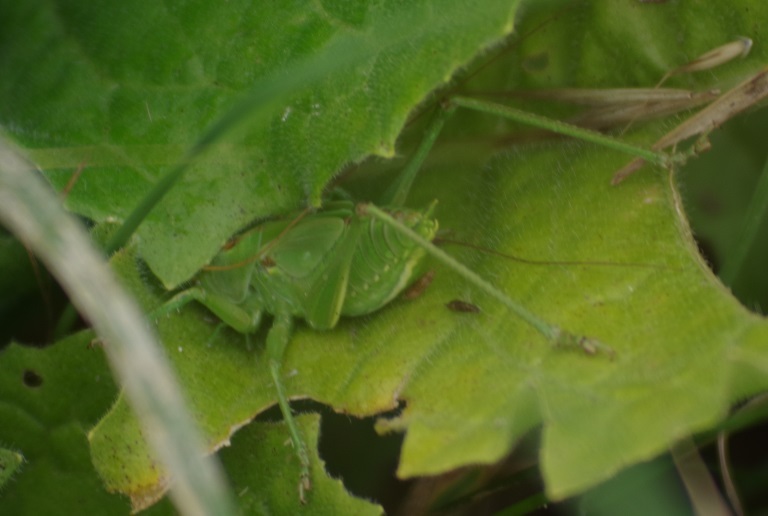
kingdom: Animalia
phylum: Arthropoda
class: Insecta
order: Orthoptera
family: Tettigoniidae
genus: Tettigonia
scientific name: Tettigonia viridissima
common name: Great green bush-cricket
